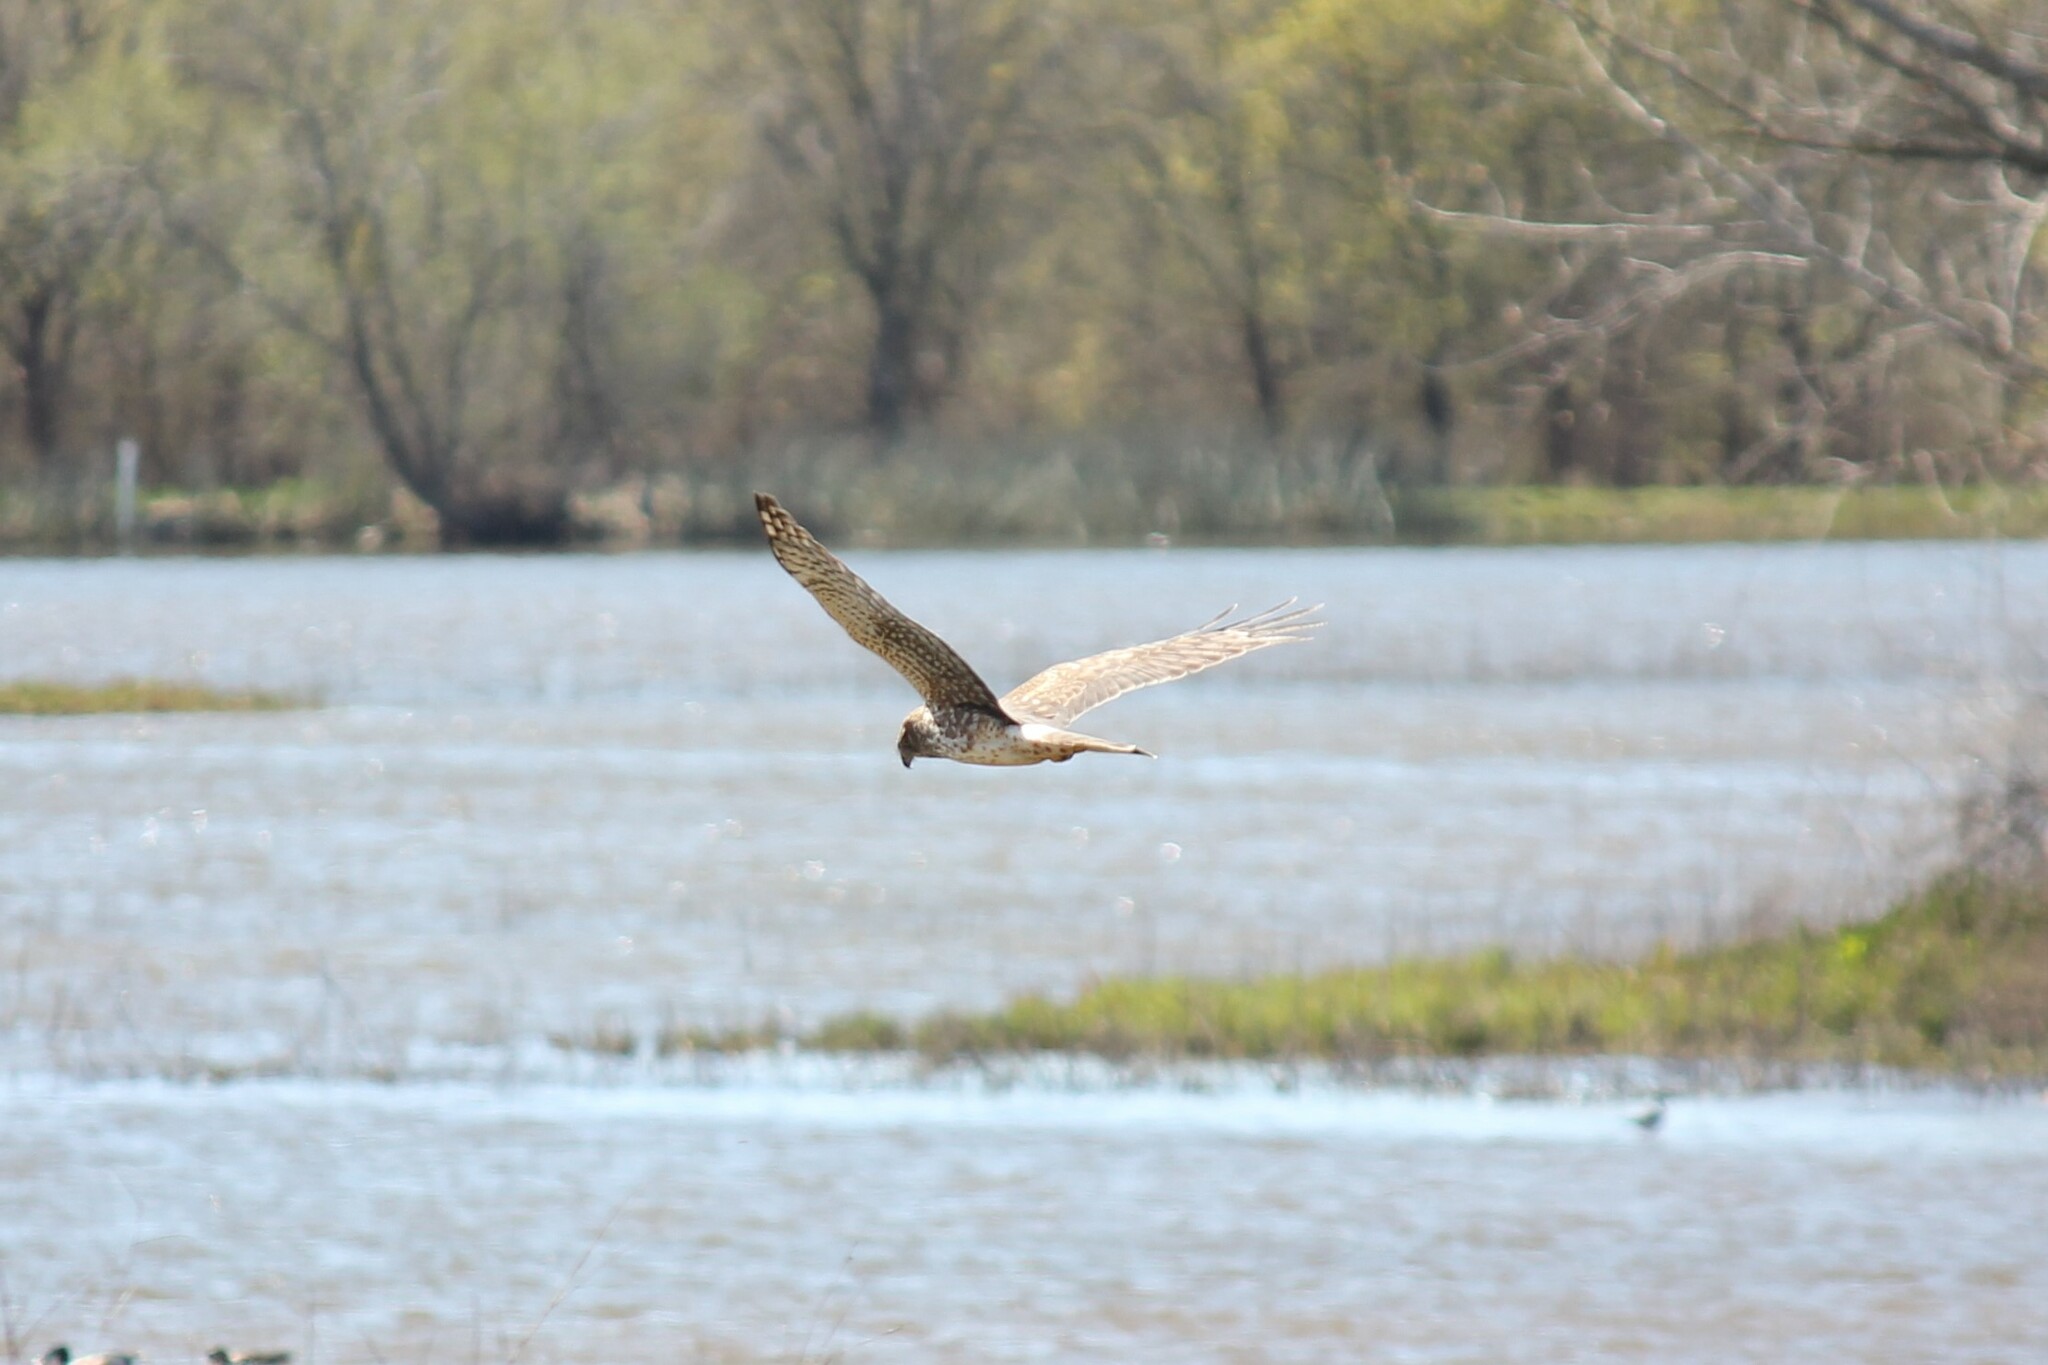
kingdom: Animalia
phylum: Chordata
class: Aves
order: Accipitriformes
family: Accipitridae
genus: Circus
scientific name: Circus cyaneus
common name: Hen harrier
